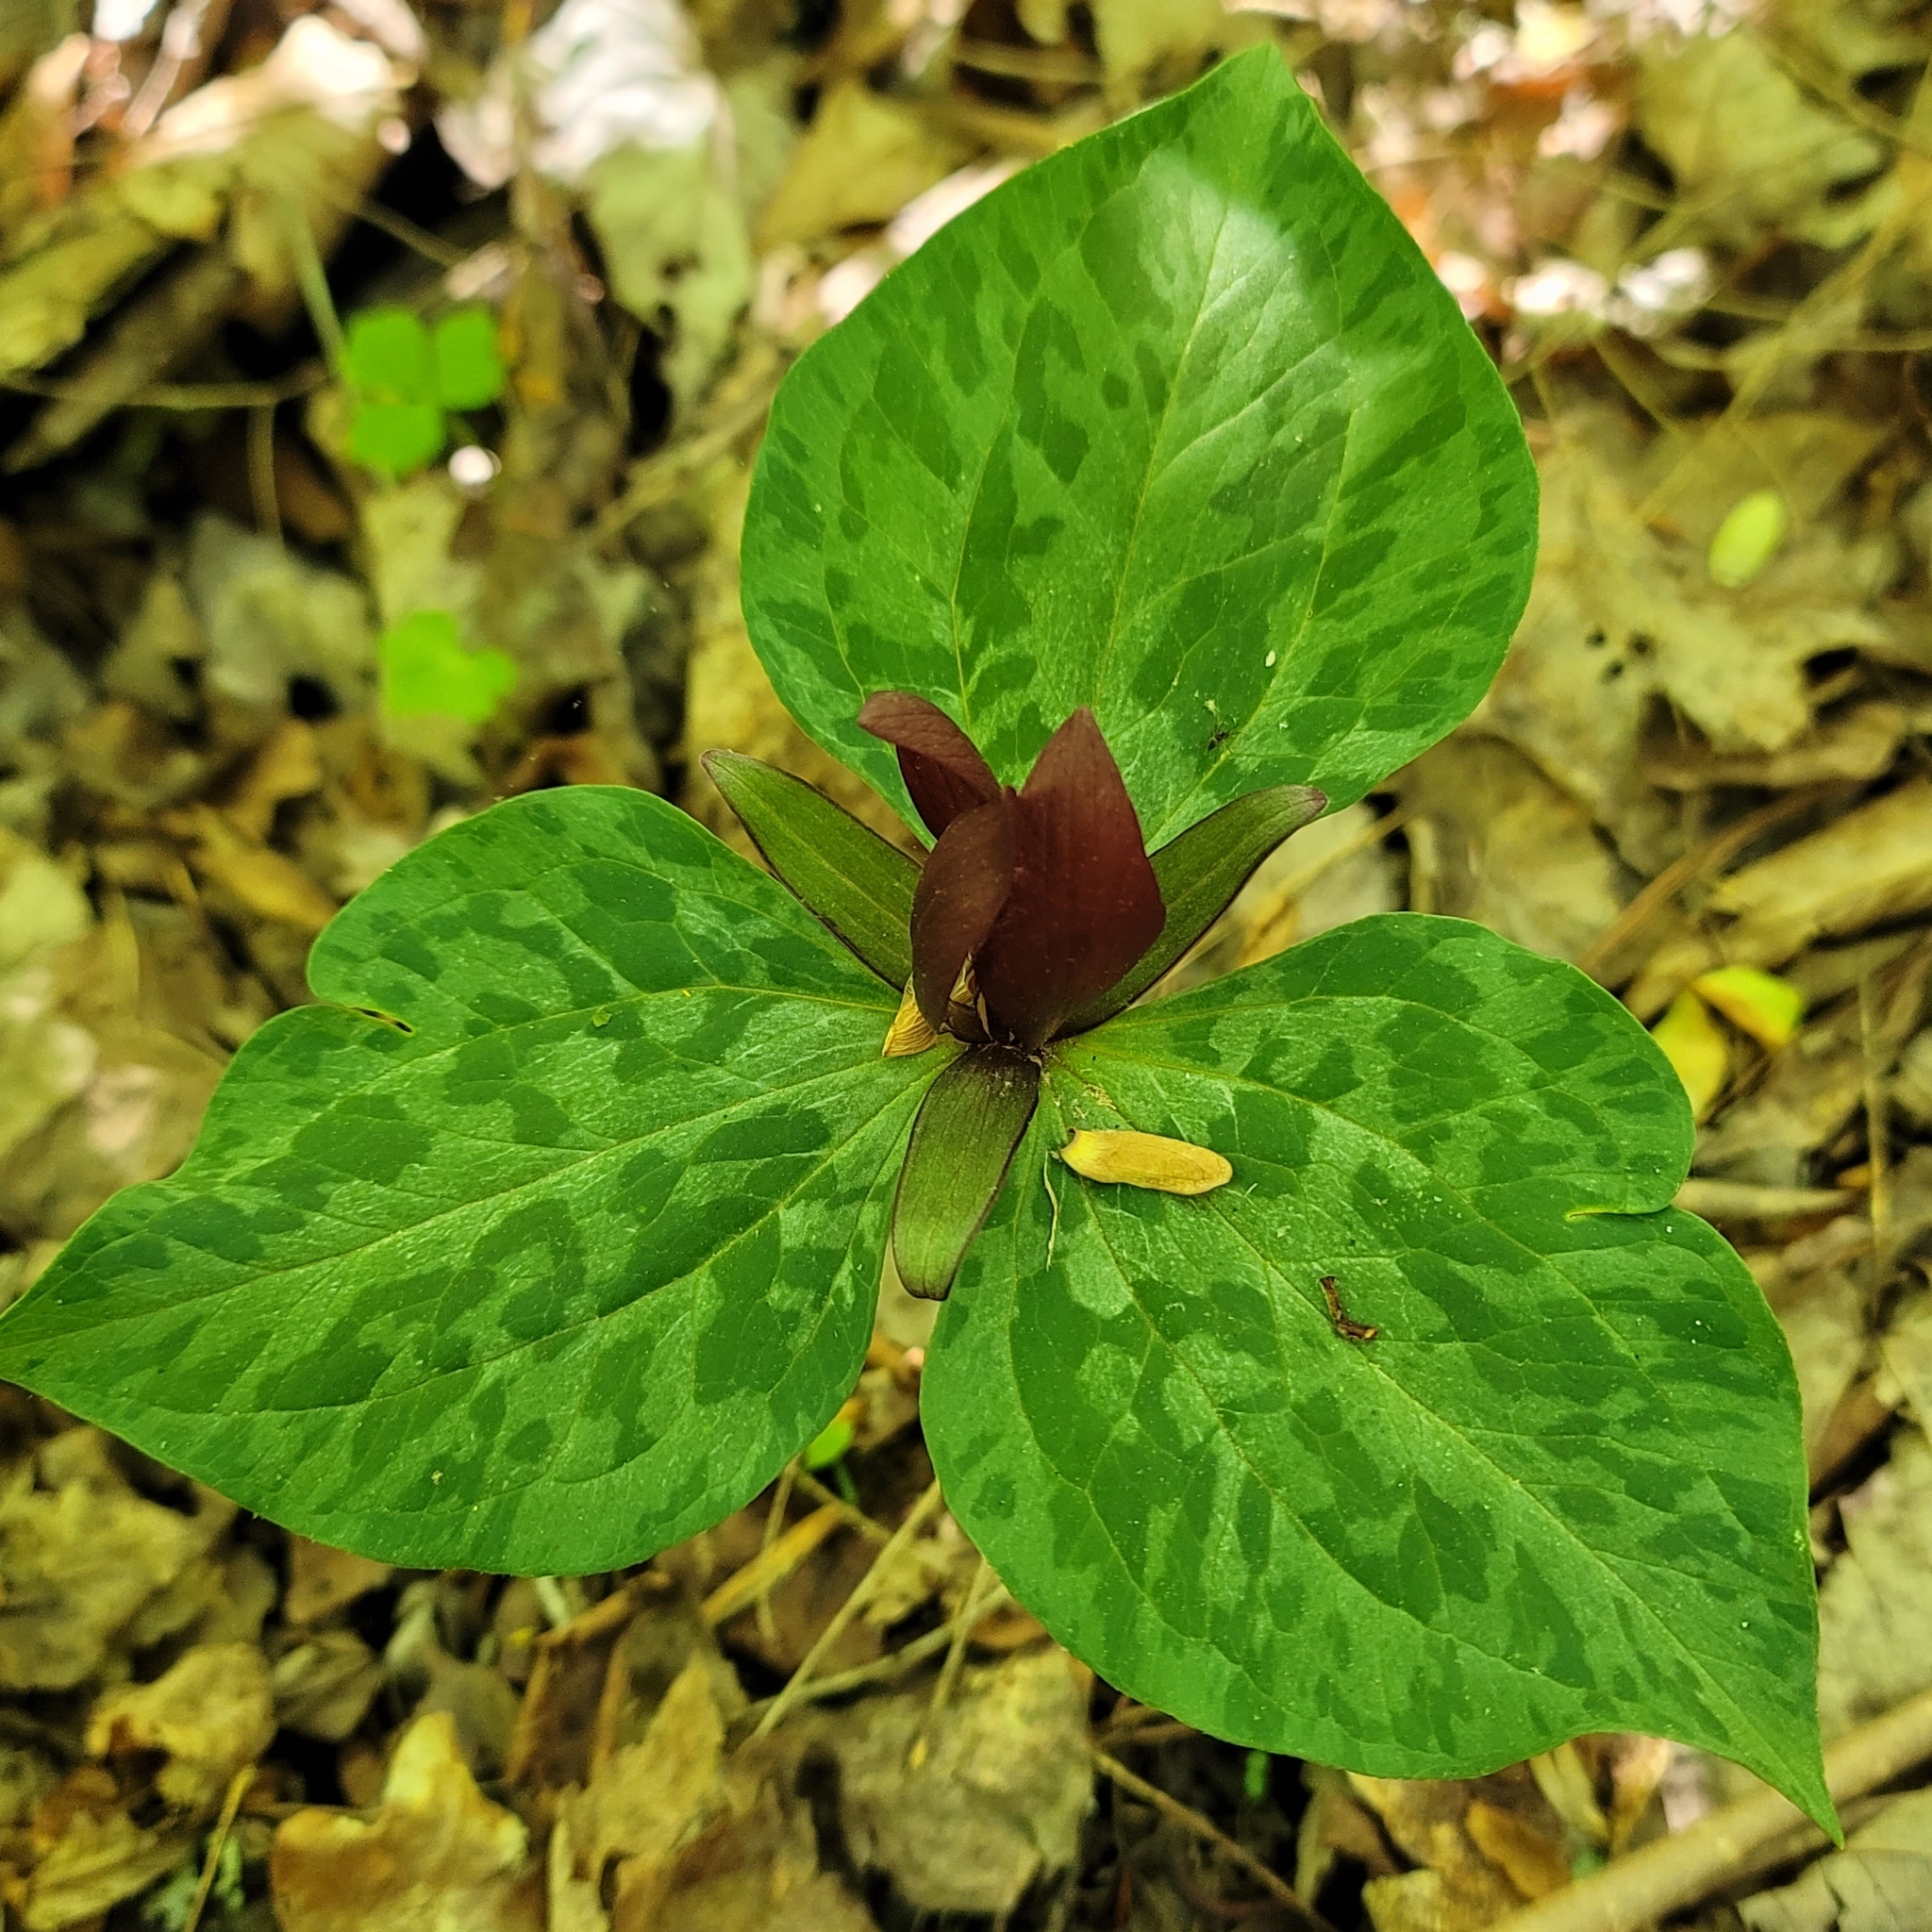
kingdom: Plantae
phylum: Tracheophyta
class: Liliopsida
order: Liliales
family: Melanthiaceae
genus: Trillium
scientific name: Trillium cuneatum
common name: Cuneate trillium
